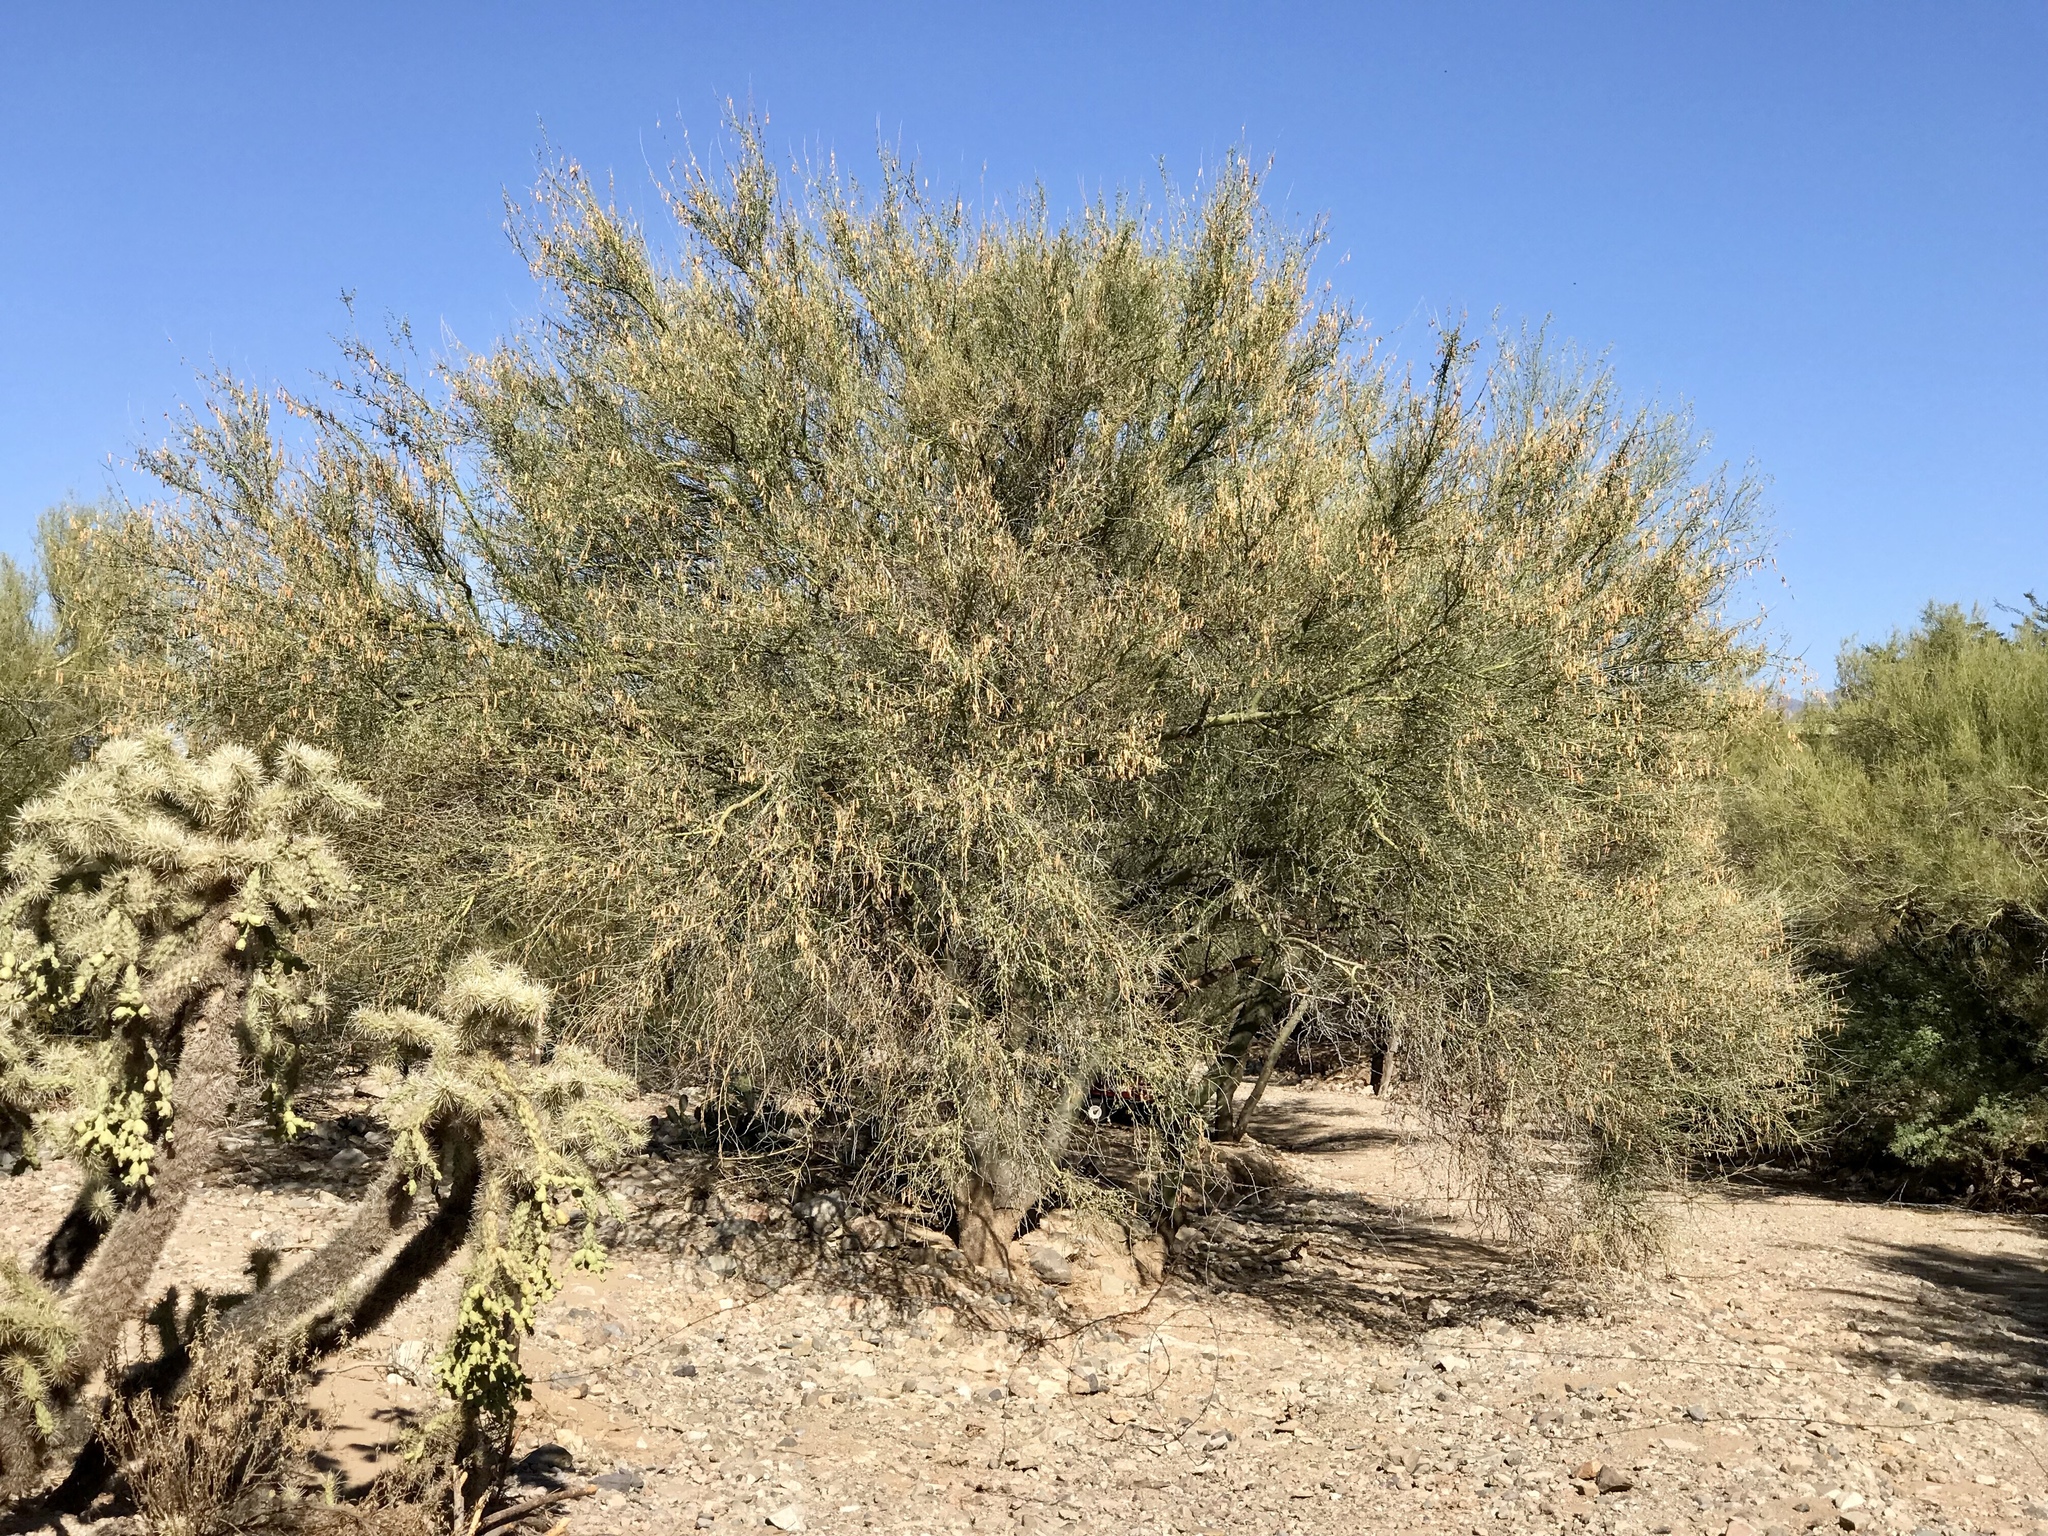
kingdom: Plantae
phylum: Tracheophyta
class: Magnoliopsida
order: Fabales
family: Fabaceae
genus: Parkinsonia
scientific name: Parkinsonia florida
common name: Blue paloverde
